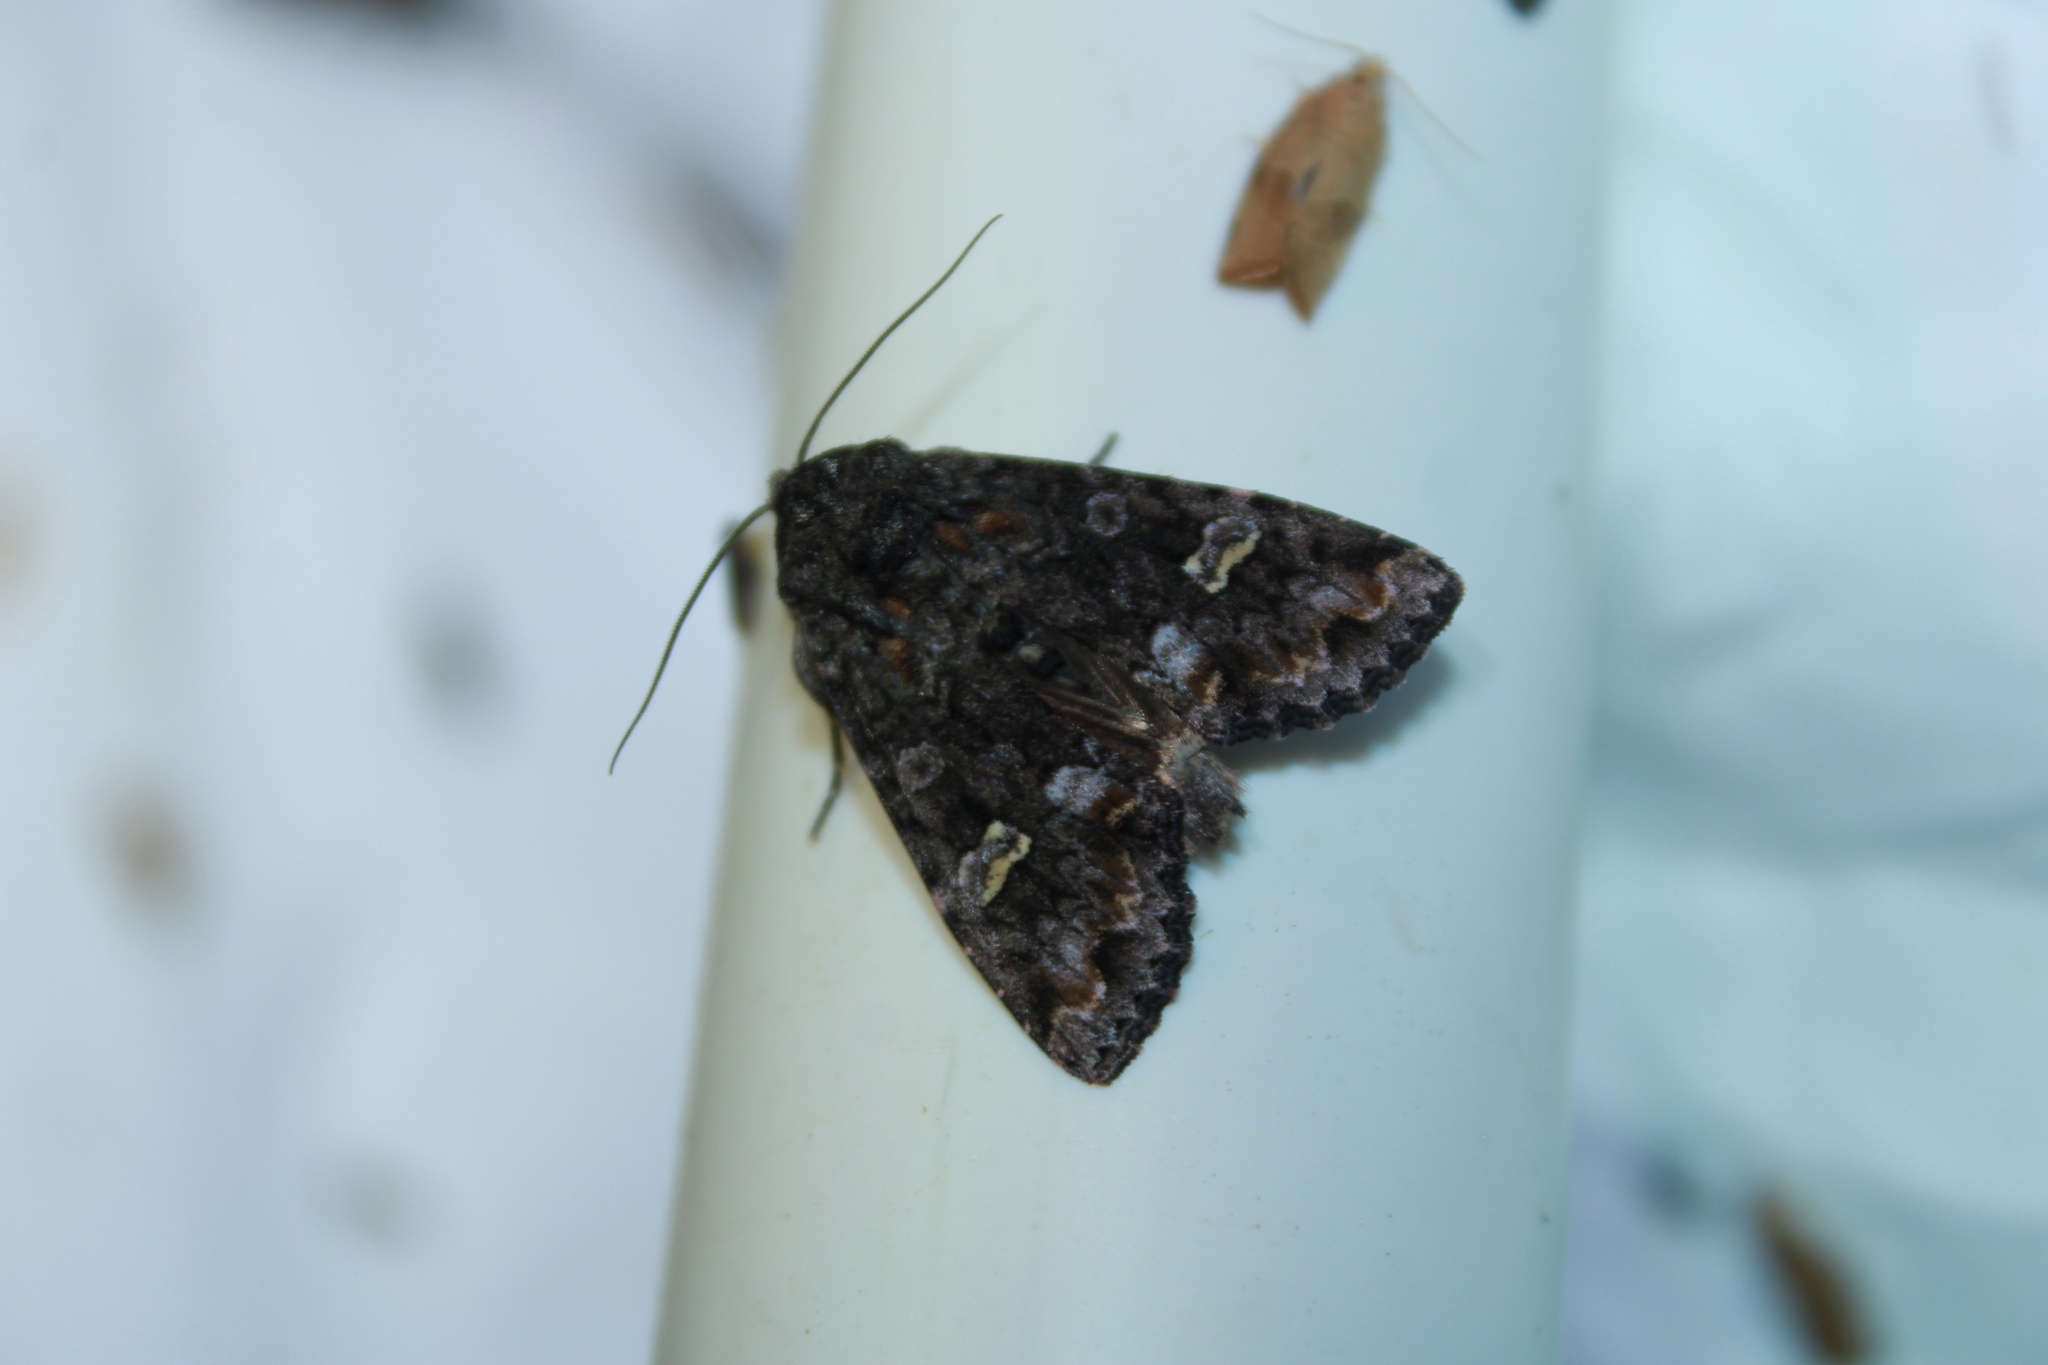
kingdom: Animalia
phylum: Arthropoda
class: Insecta
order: Lepidoptera
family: Noctuidae
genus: Spiramater
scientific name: Spiramater lutra
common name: Otter spiramater moth
